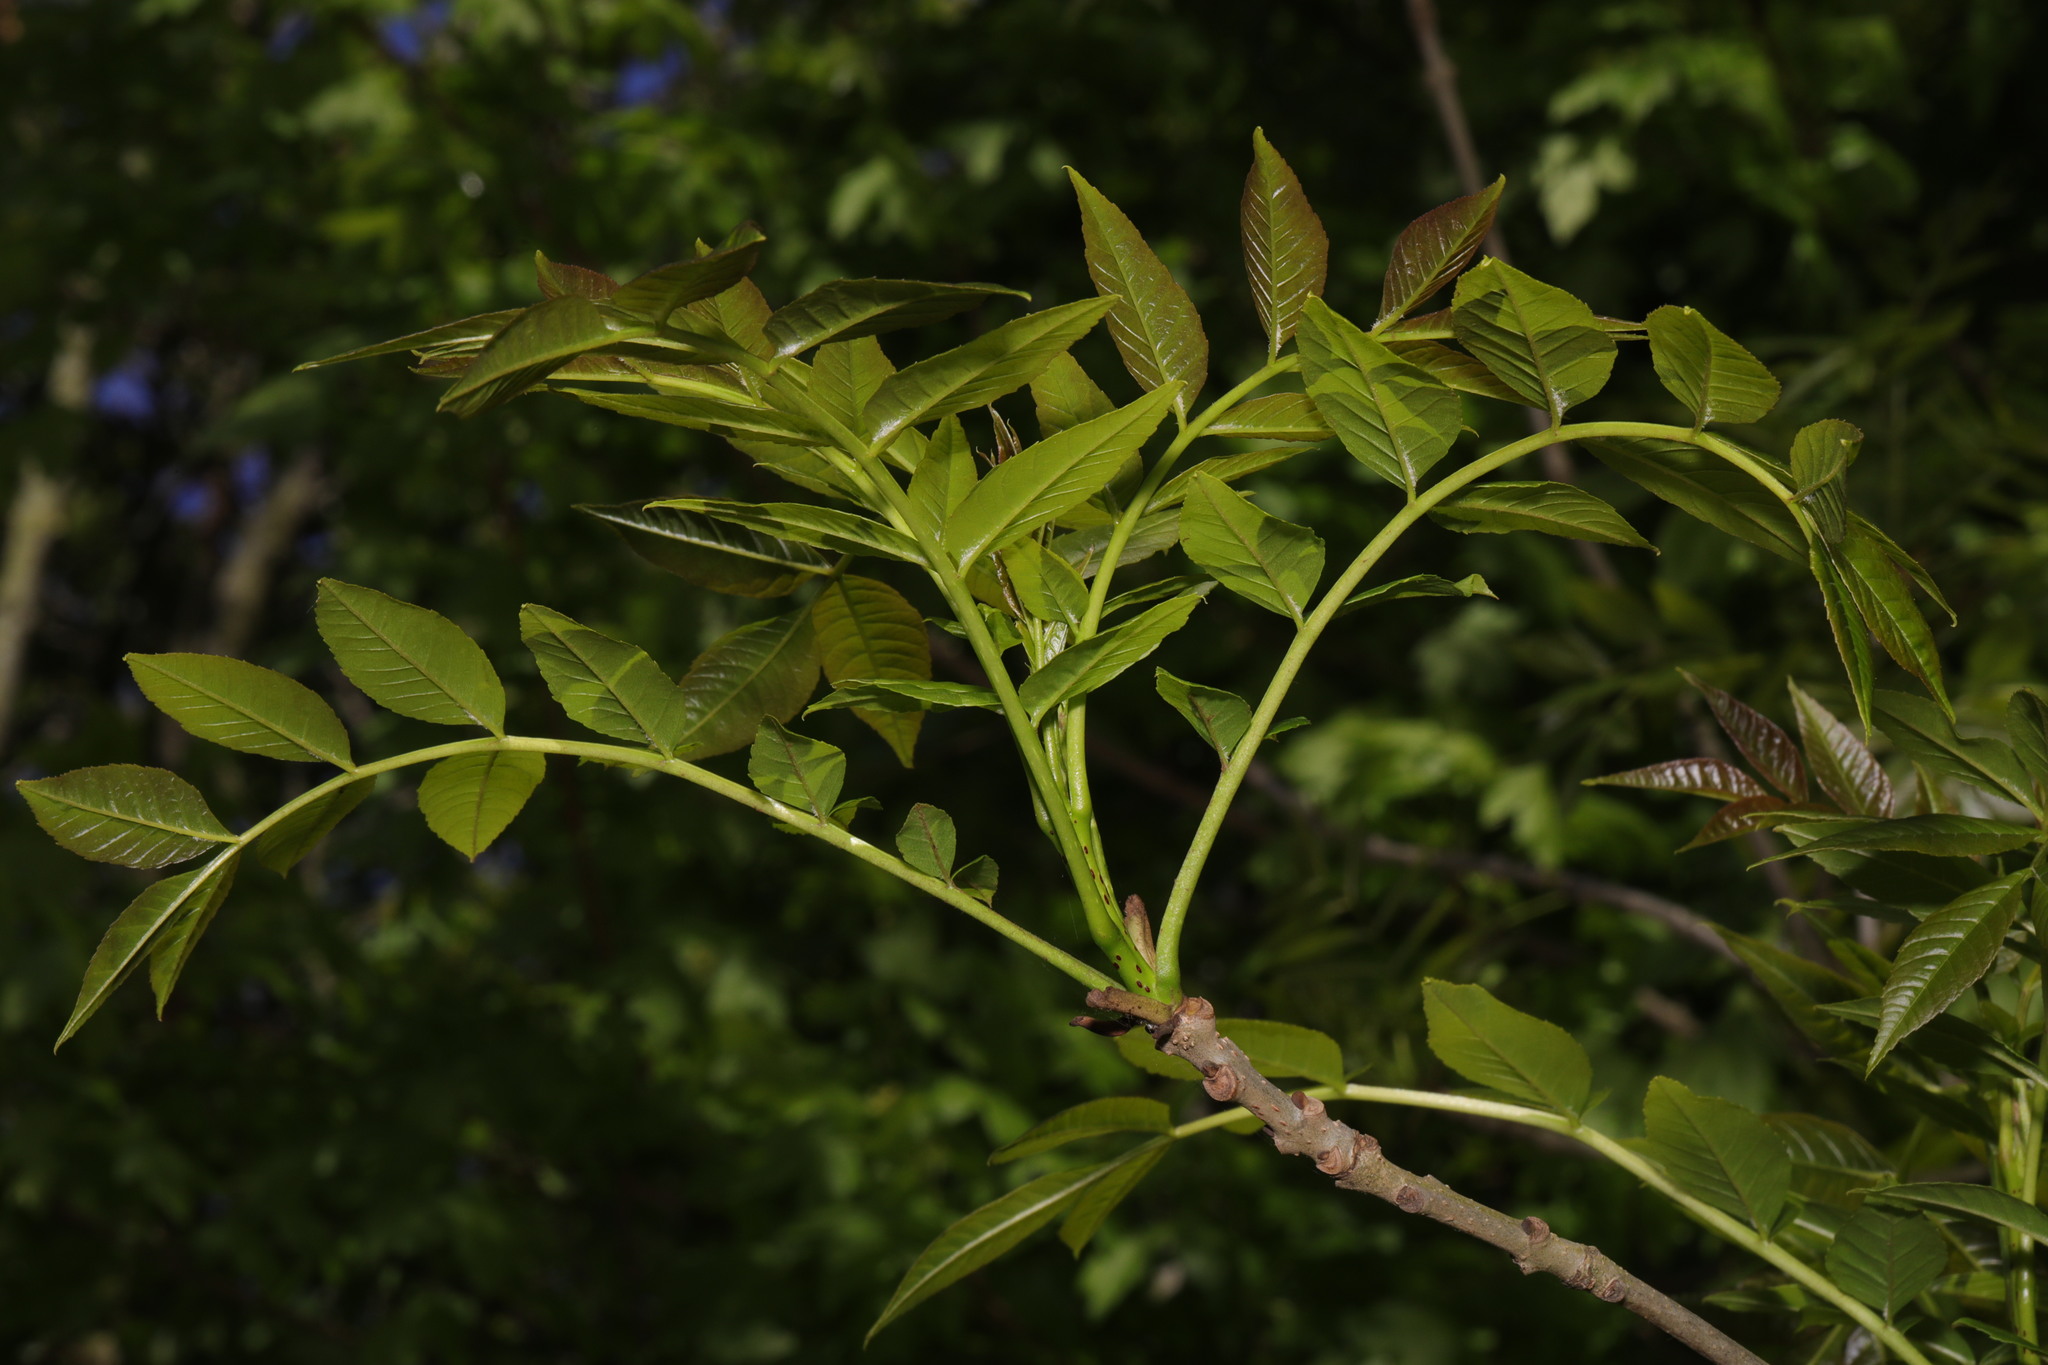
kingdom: Plantae
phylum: Tracheophyta
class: Magnoliopsida
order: Lamiales
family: Oleaceae
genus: Fraxinus
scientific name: Fraxinus excelsior
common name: European ash
